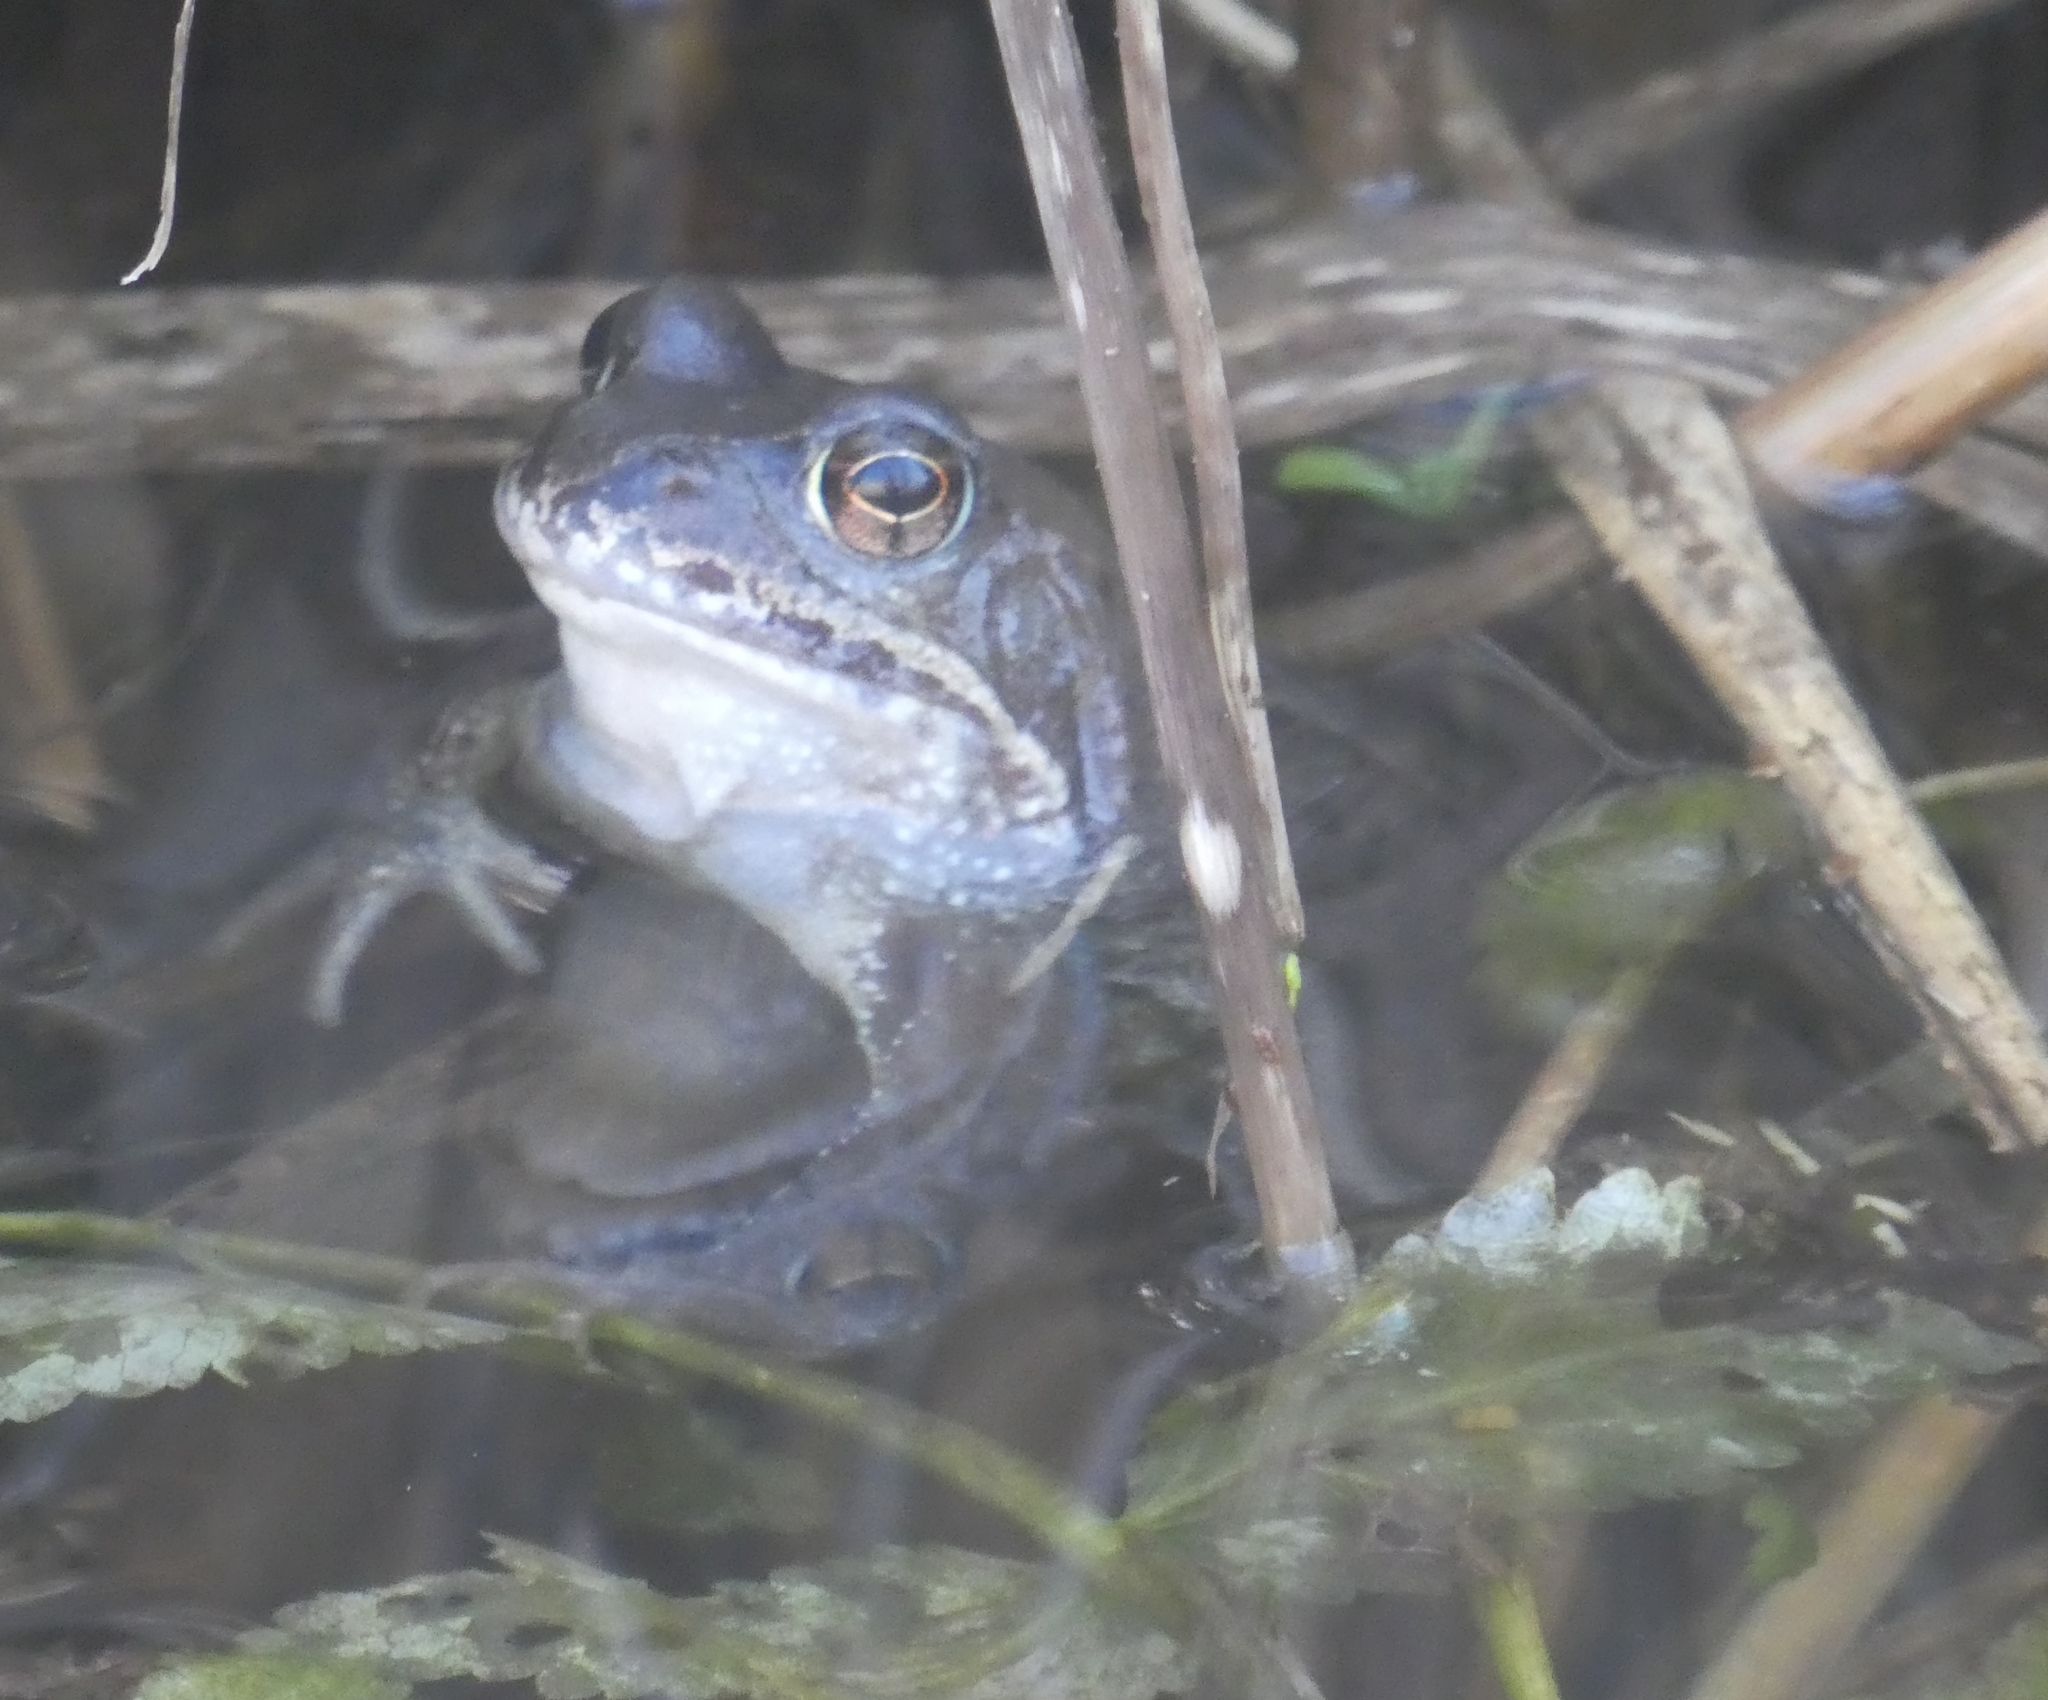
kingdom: Animalia
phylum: Chordata
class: Amphibia
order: Anura
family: Ranidae
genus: Rana
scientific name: Rana temporaria
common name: Common frog
